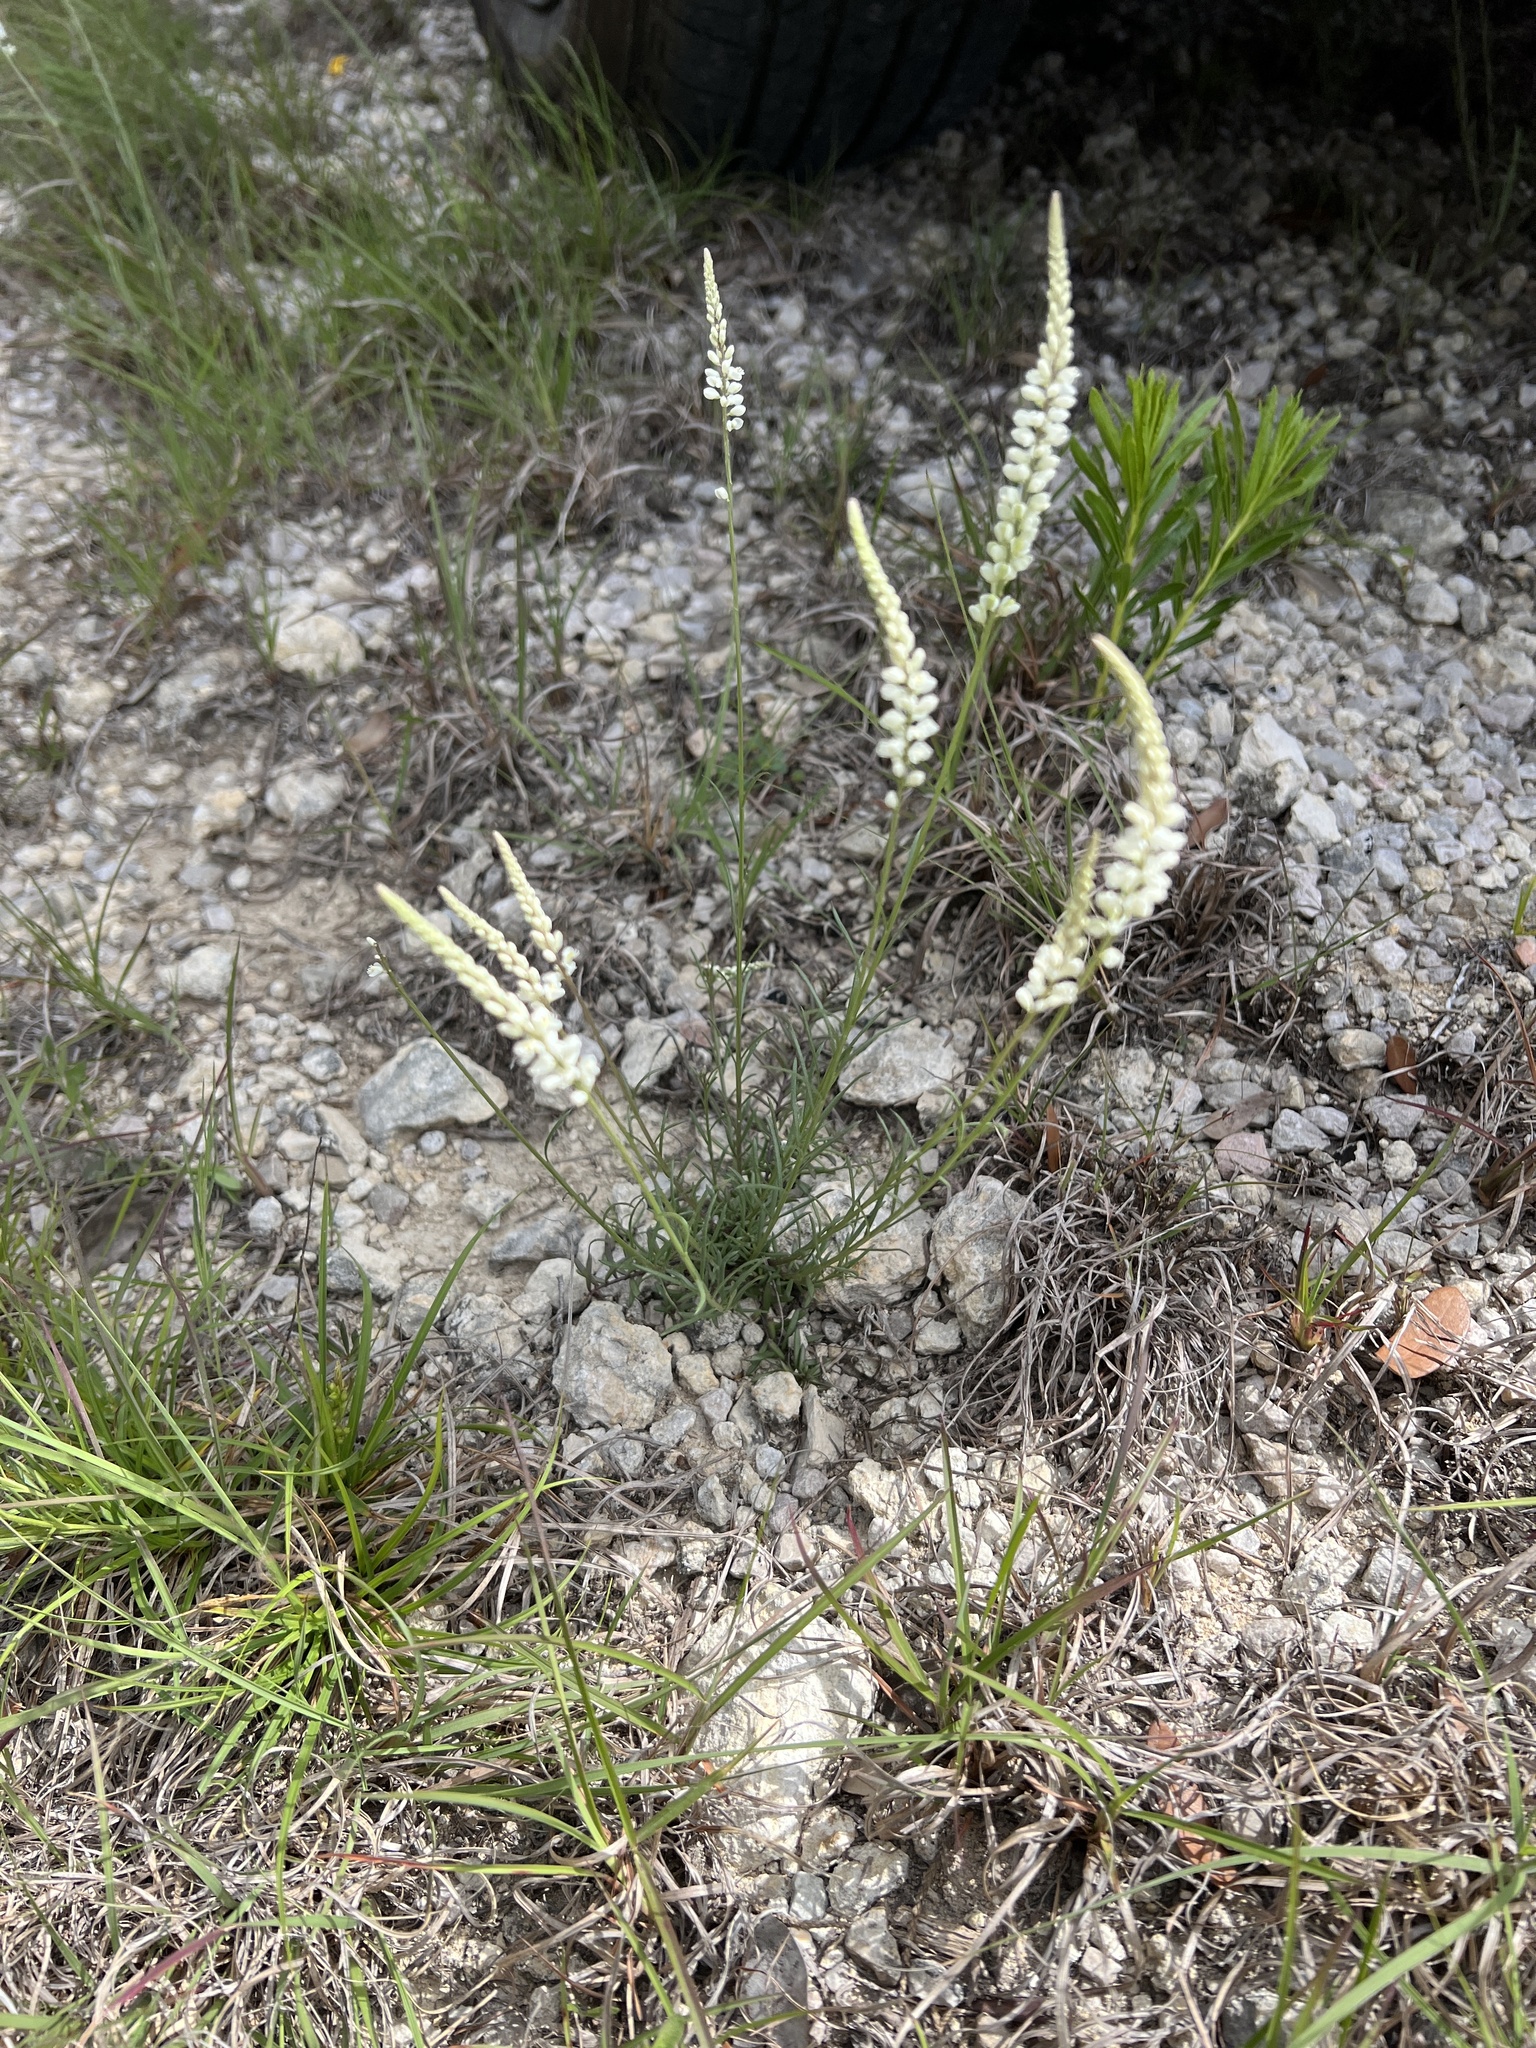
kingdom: Plantae
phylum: Tracheophyta
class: Magnoliopsida
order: Fabales
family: Polygalaceae
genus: Polygala
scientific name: Polygala alba
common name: White milkwort
